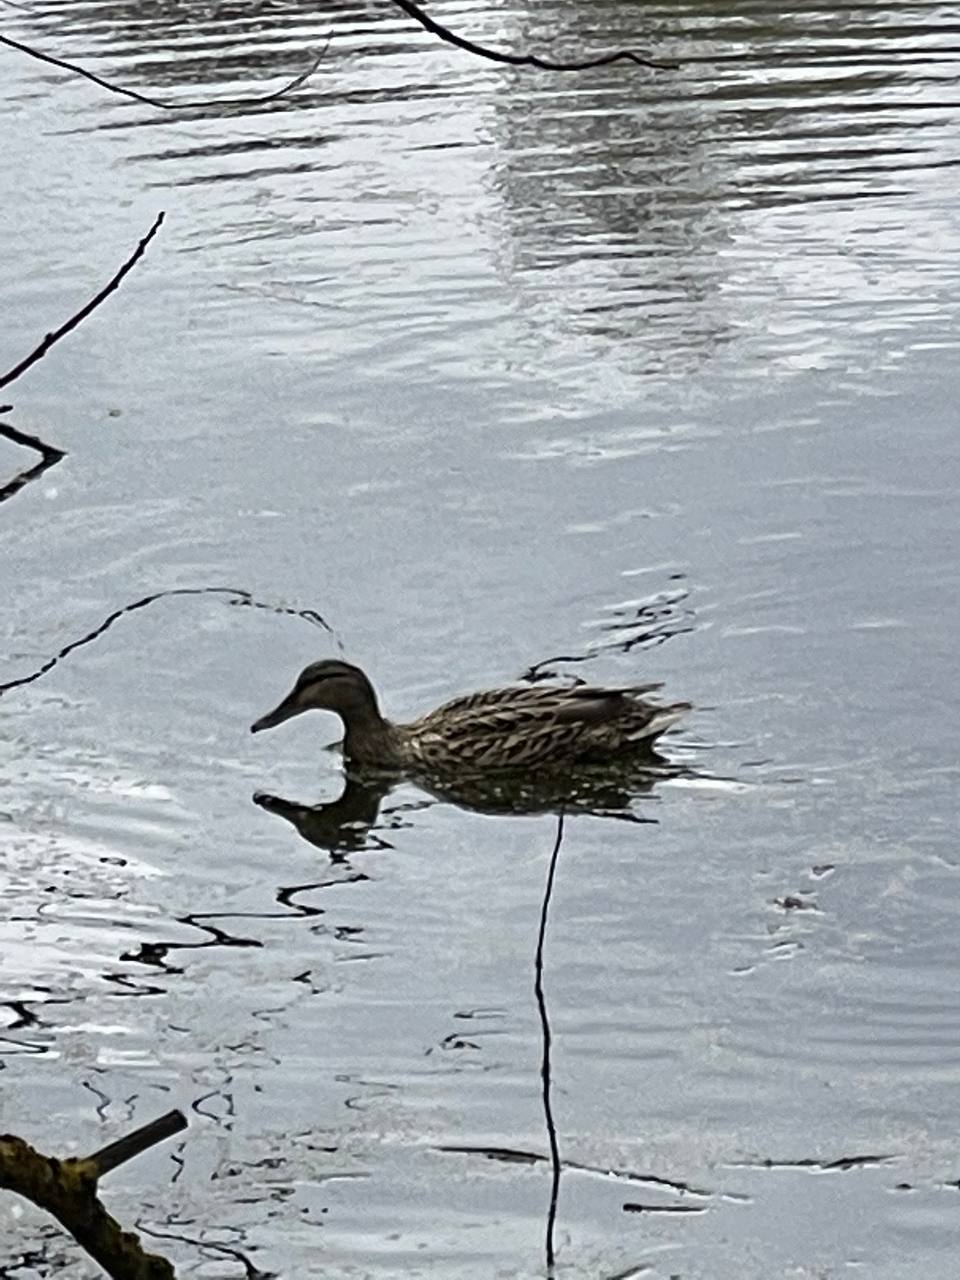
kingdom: Animalia
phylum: Chordata
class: Aves
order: Anseriformes
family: Anatidae
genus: Anas
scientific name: Anas platyrhynchos
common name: Mallard
